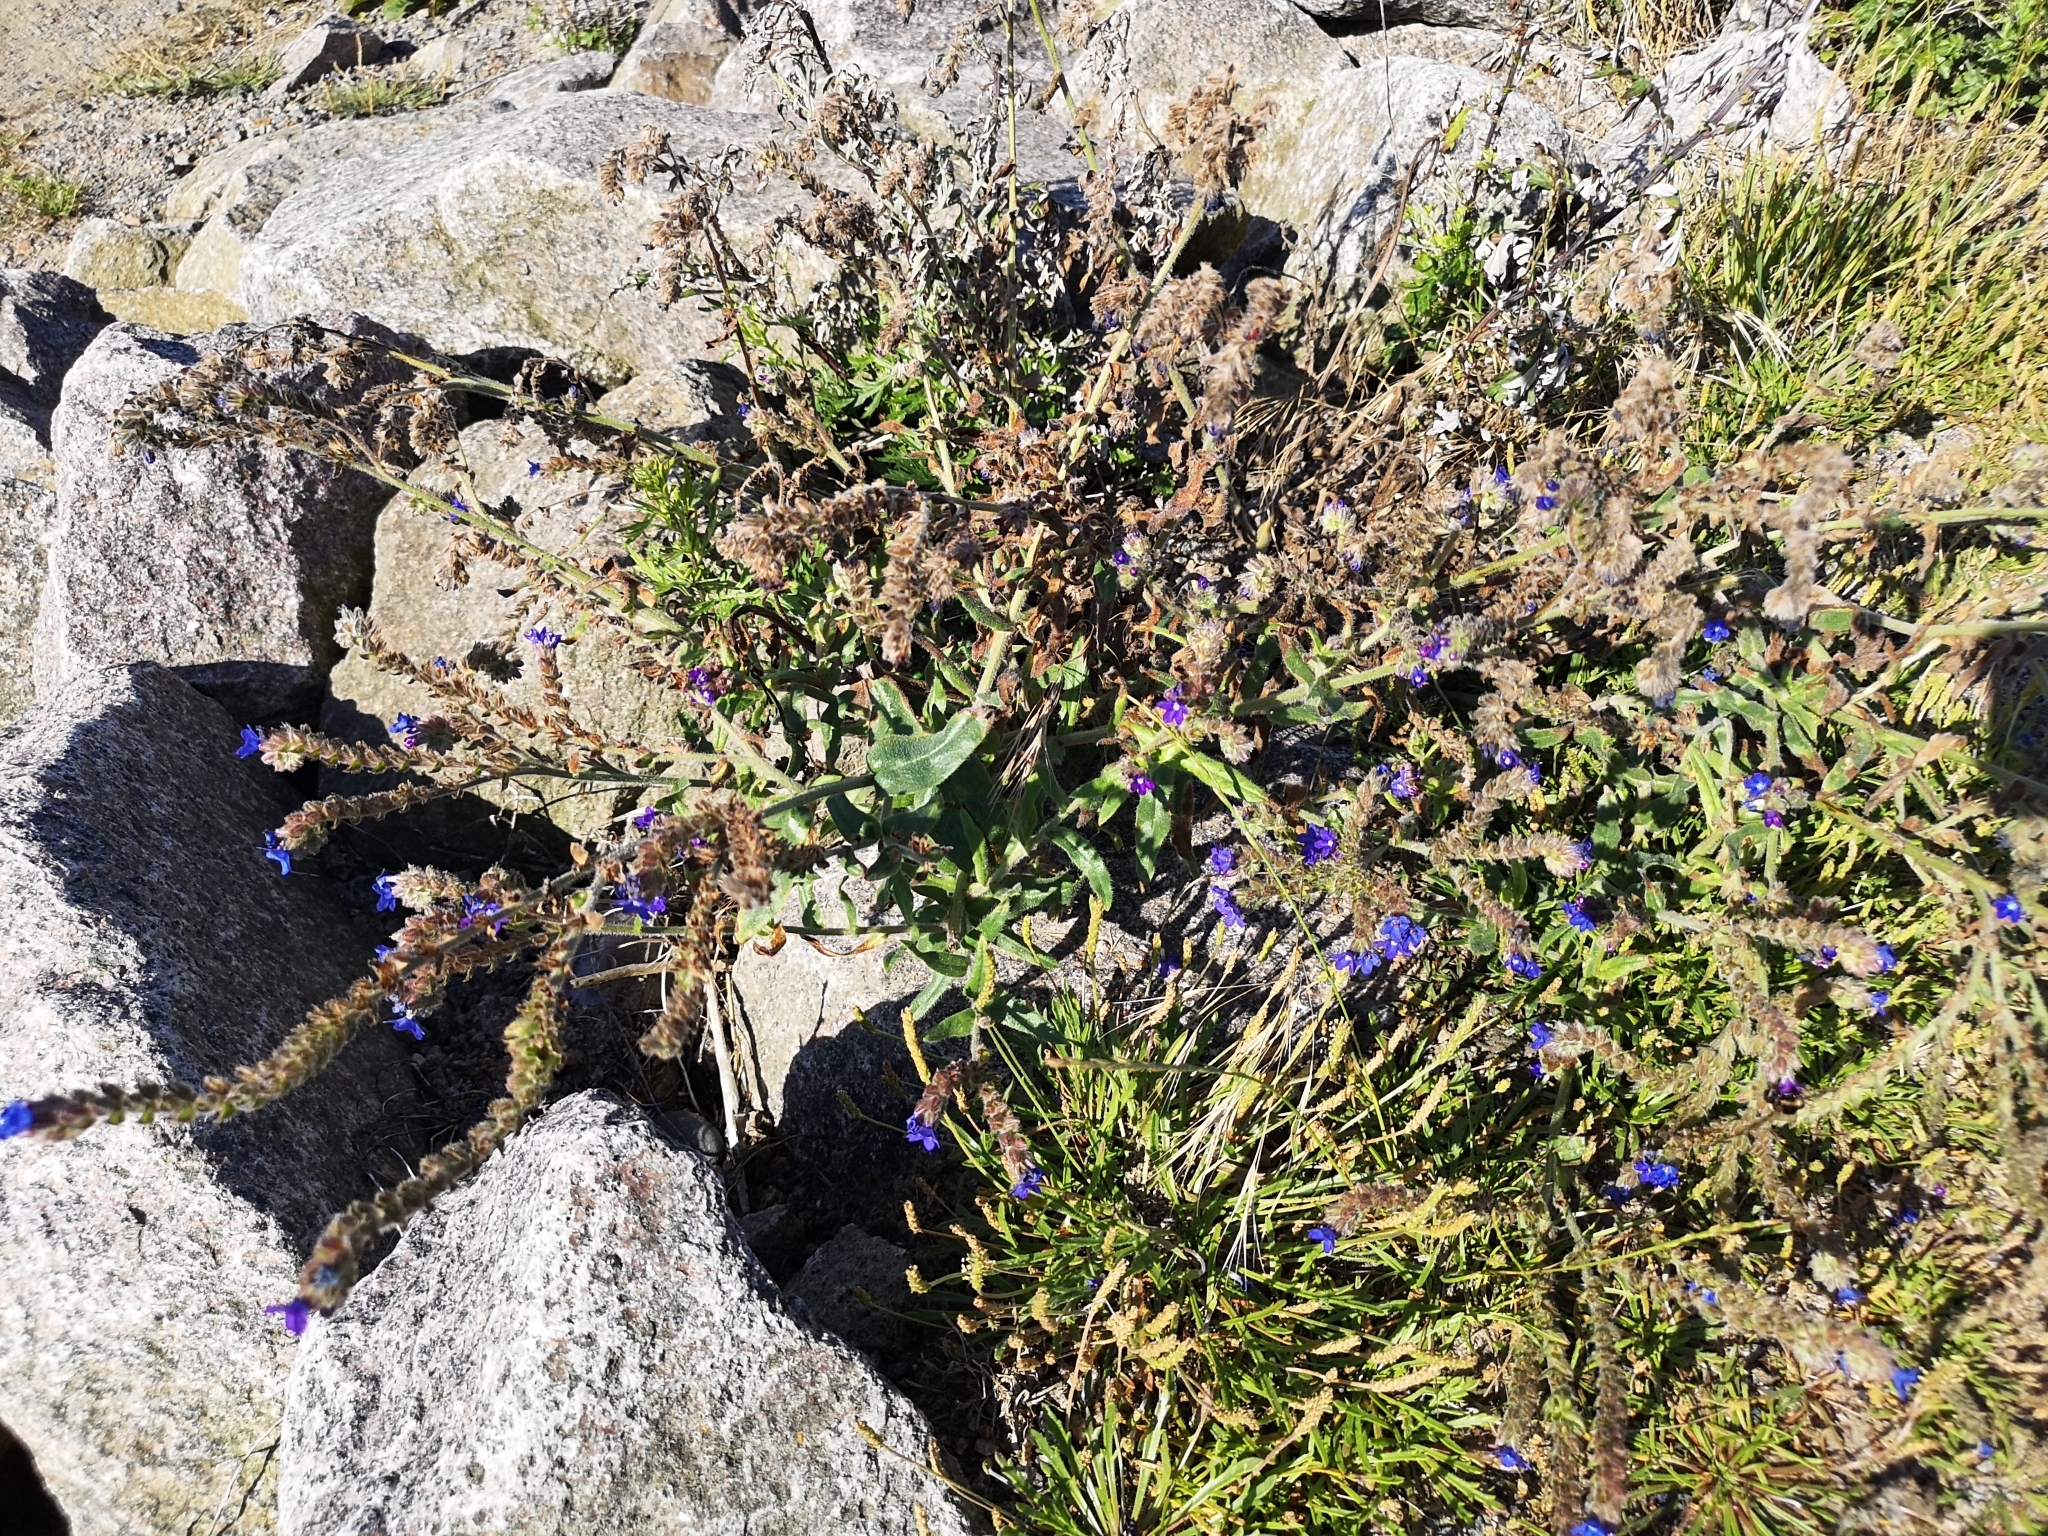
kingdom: Plantae
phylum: Tracheophyta
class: Magnoliopsida
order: Boraginales
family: Boraginaceae
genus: Anchusa
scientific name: Anchusa officinalis
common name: Alkanet
